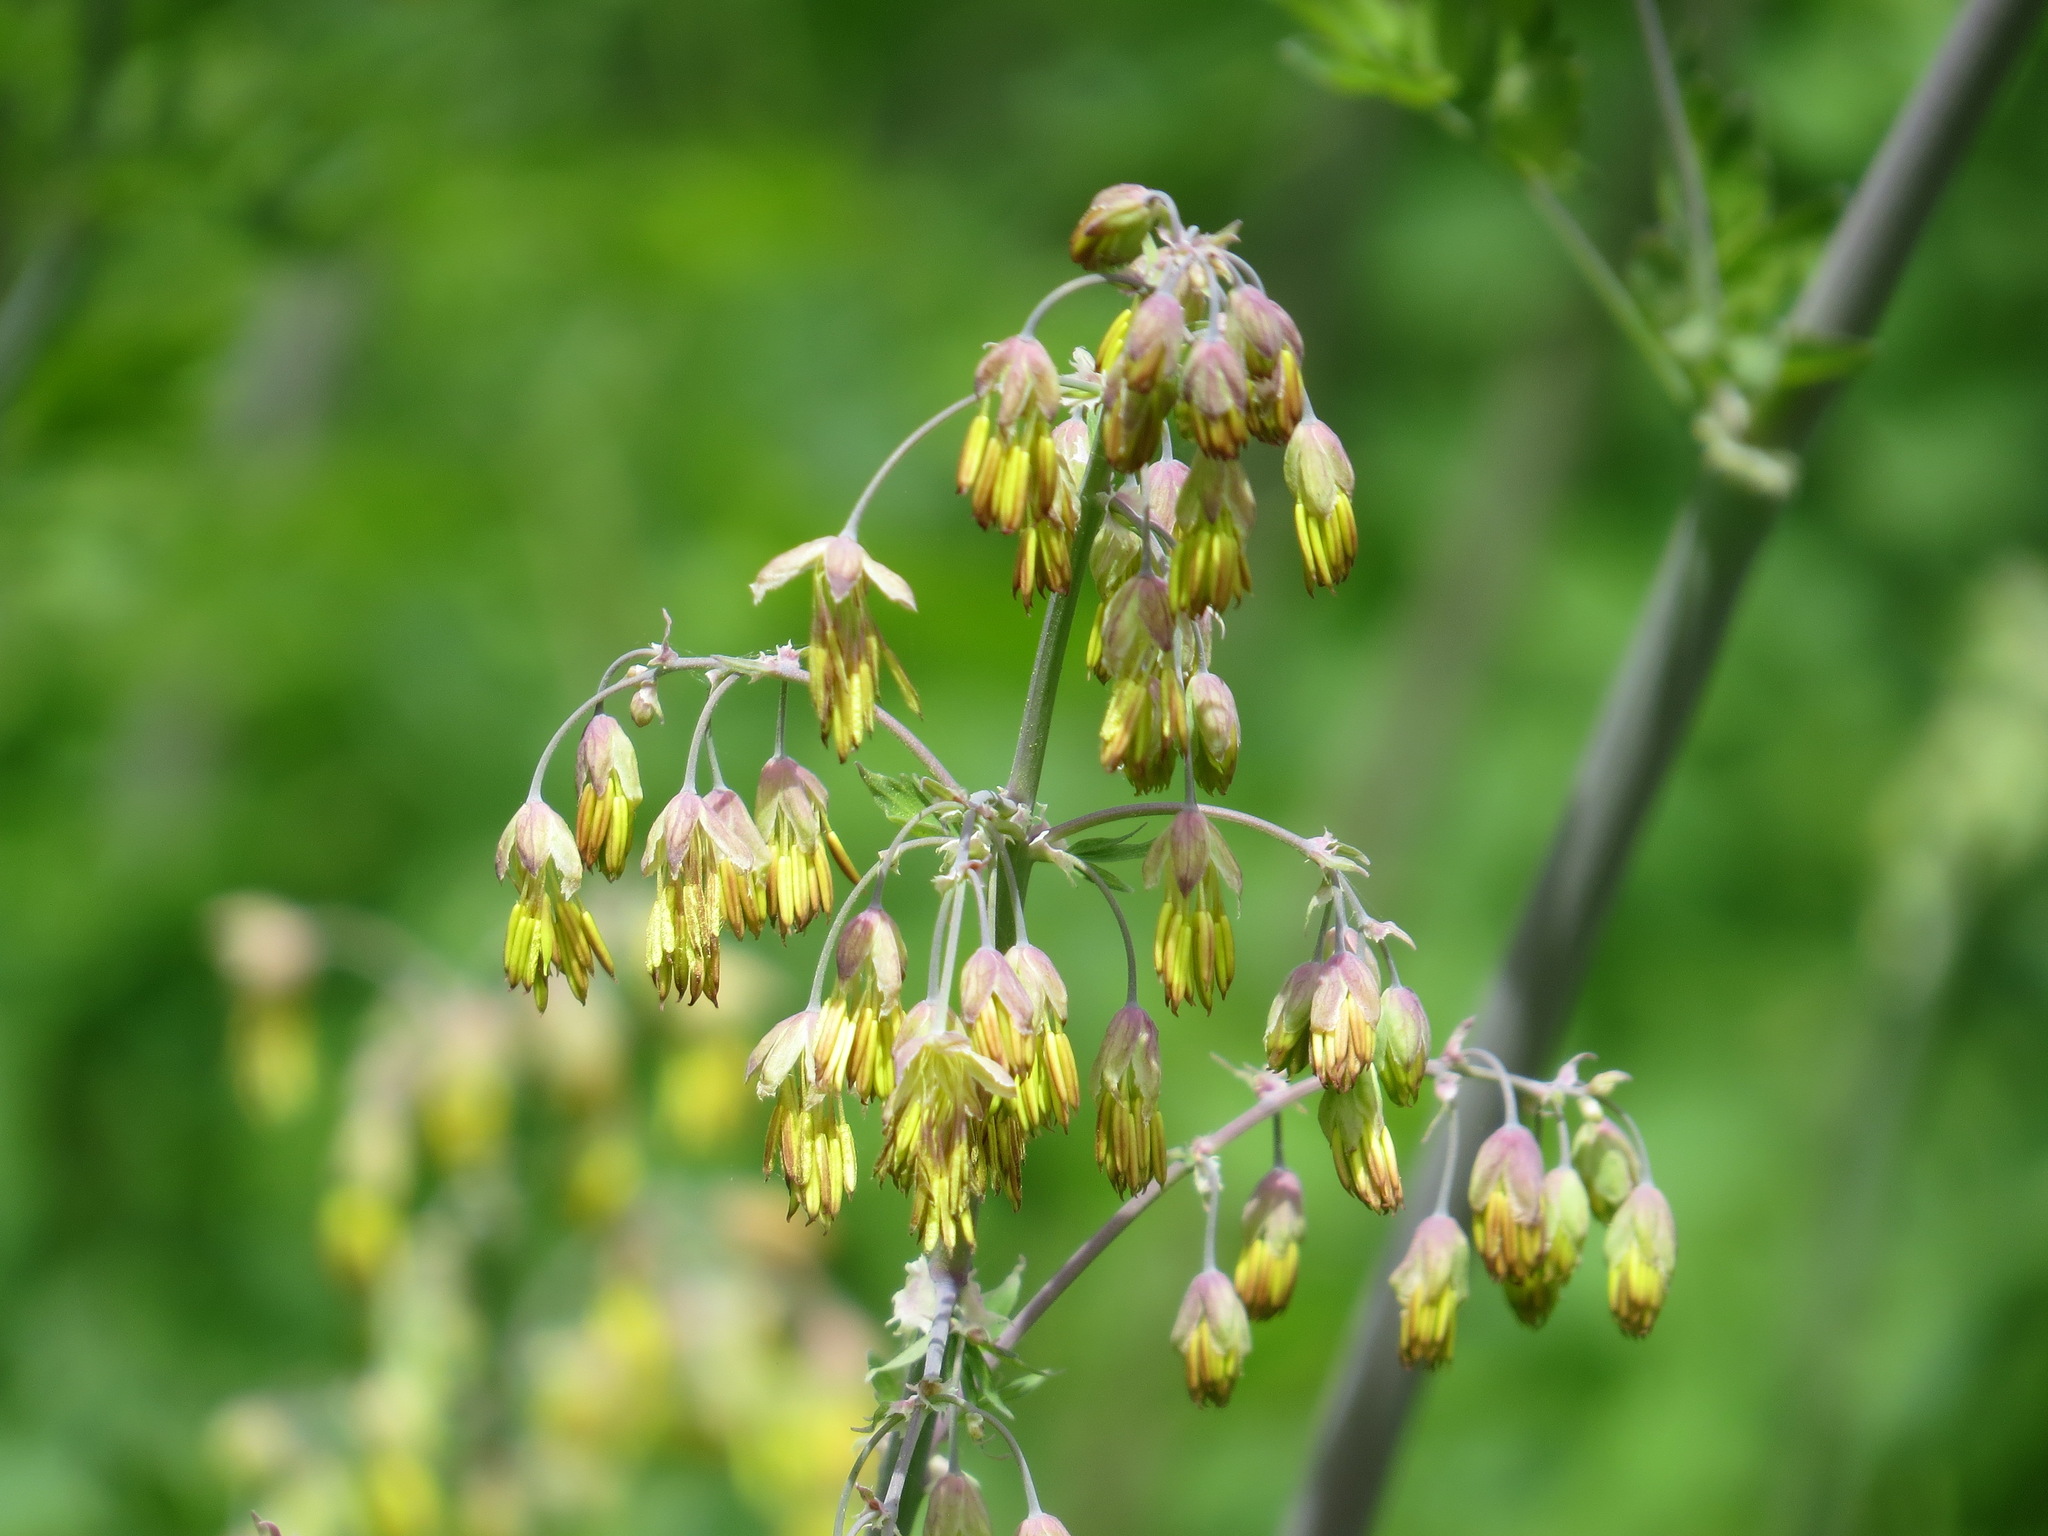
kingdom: Plantae
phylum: Tracheophyta
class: Magnoliopsida
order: Ranunculales
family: Ranunculaceae
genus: Thalictrum
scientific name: Thalictrum fendleri
